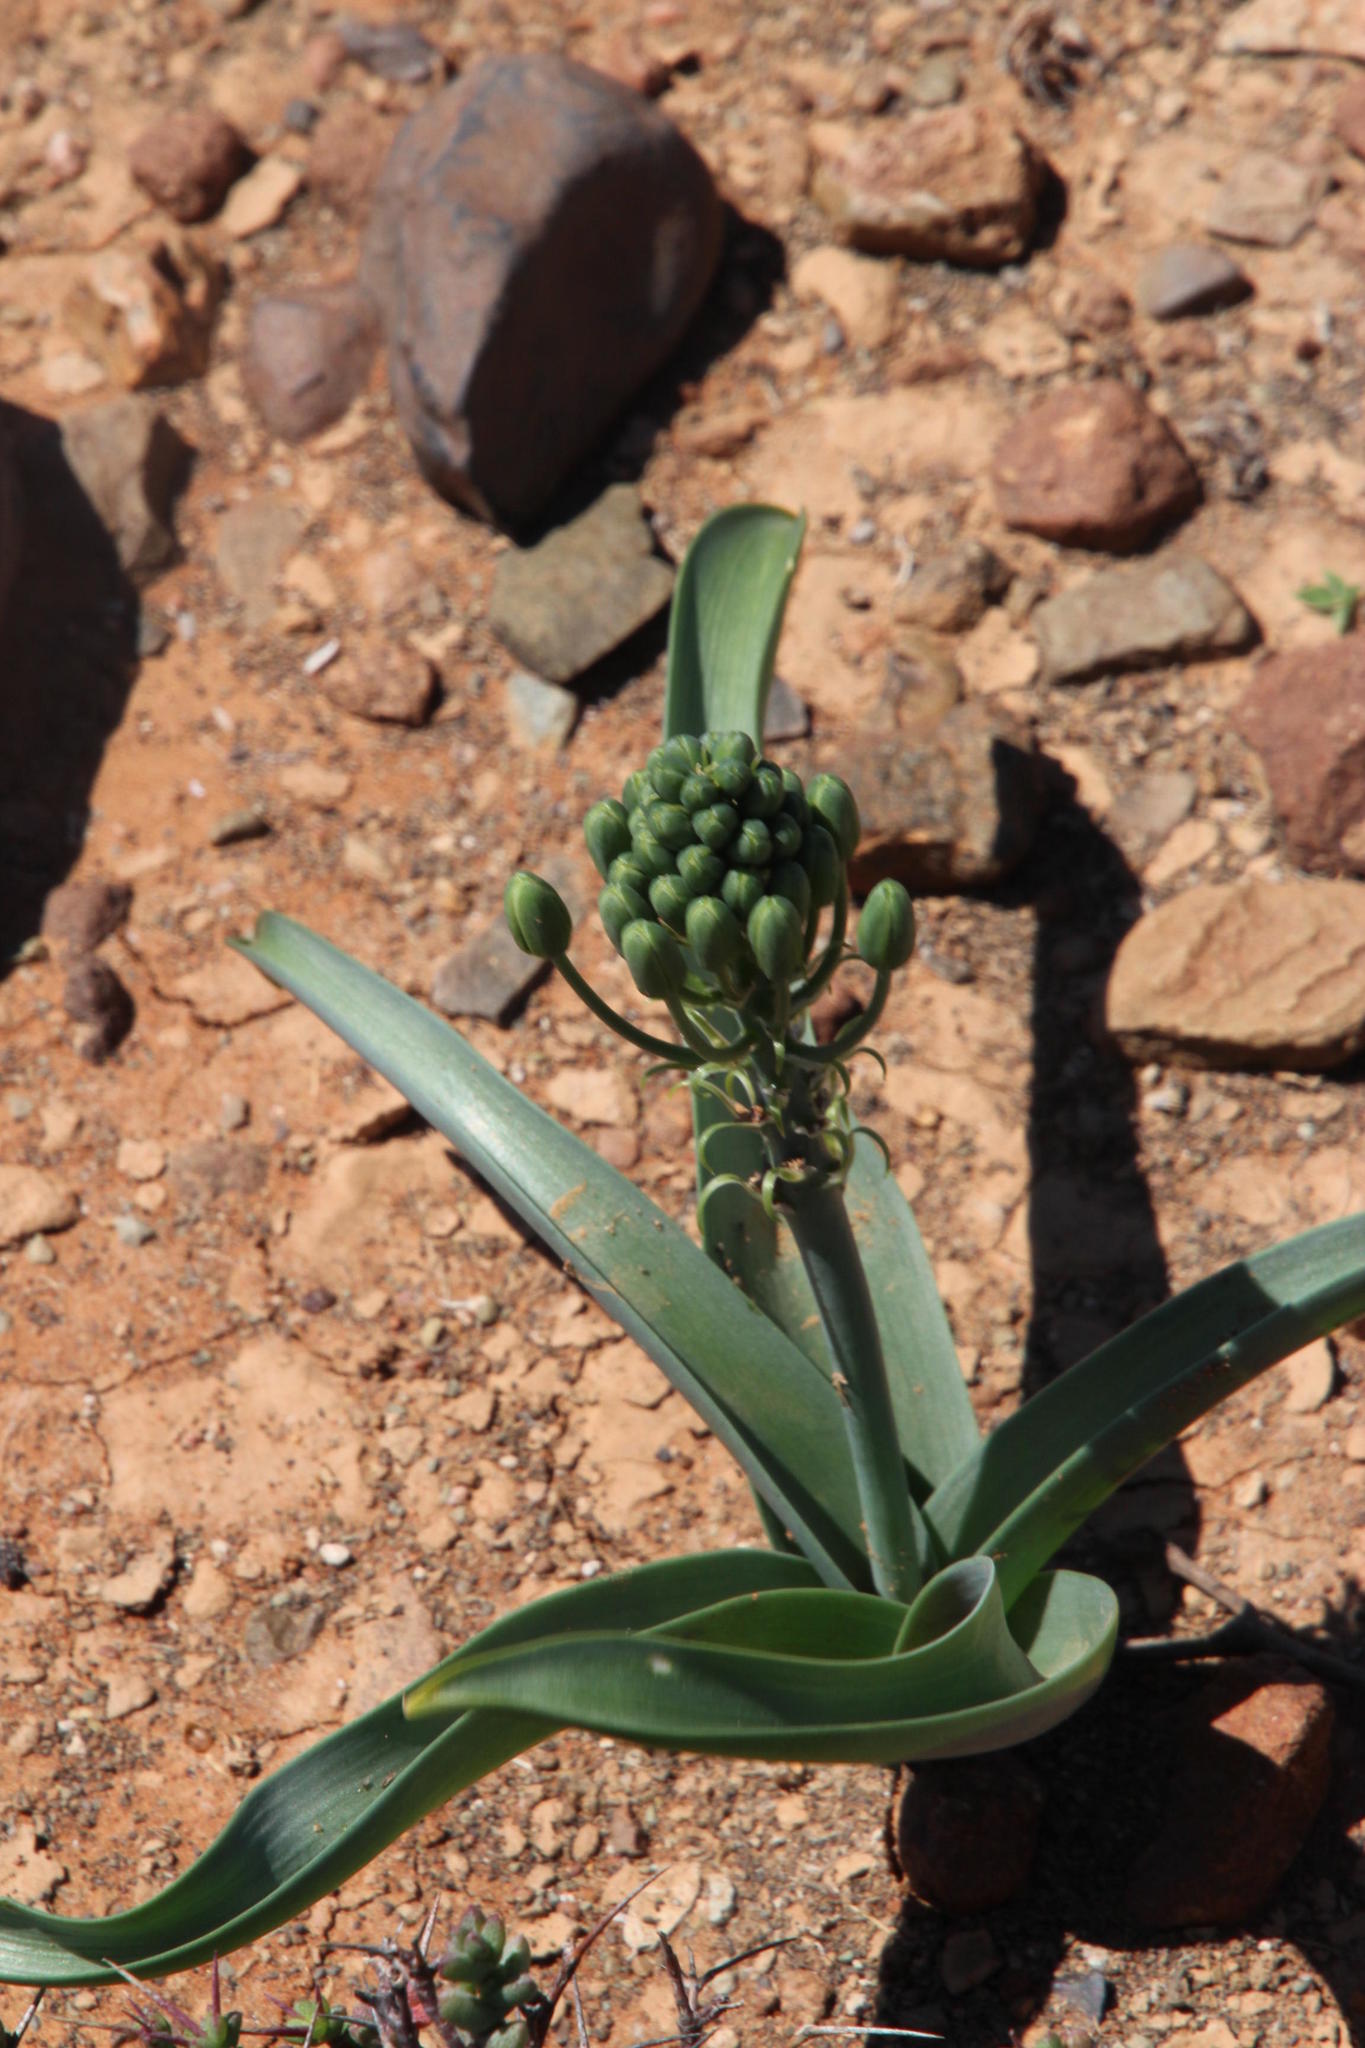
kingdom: Plantae
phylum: Tracheophyta
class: Liliopsida
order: Asparagales
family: Asparagaceae
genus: Albuca
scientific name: Albuca setosa
